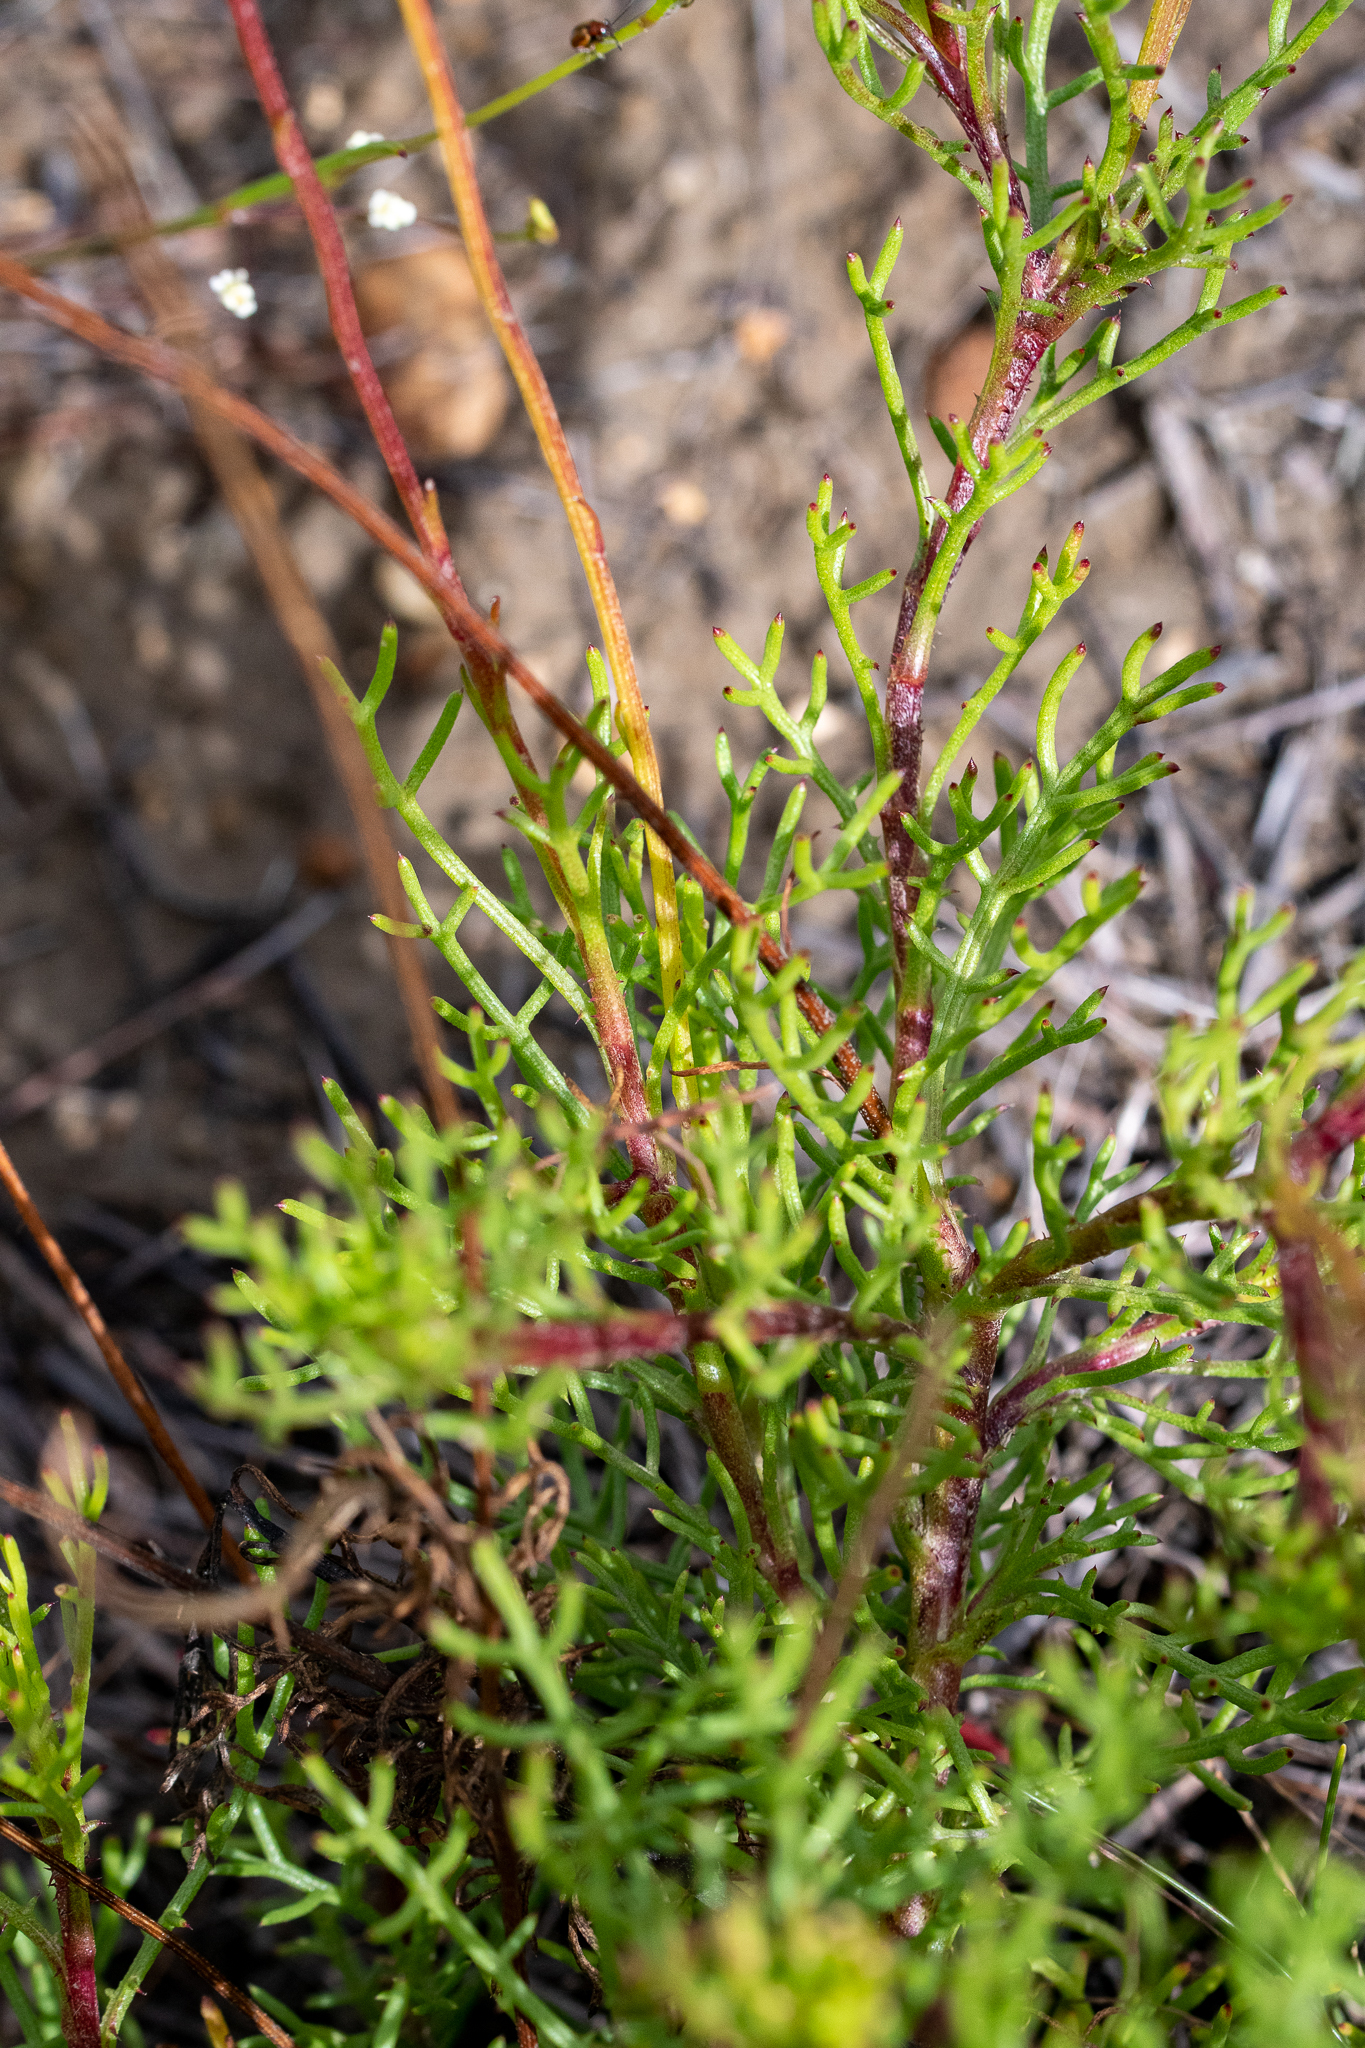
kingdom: Plantae
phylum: Tracheophyta
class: Magnoliopsida
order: Asterales
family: Asteraceae
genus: Ursinia
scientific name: Ursinia paleacea
